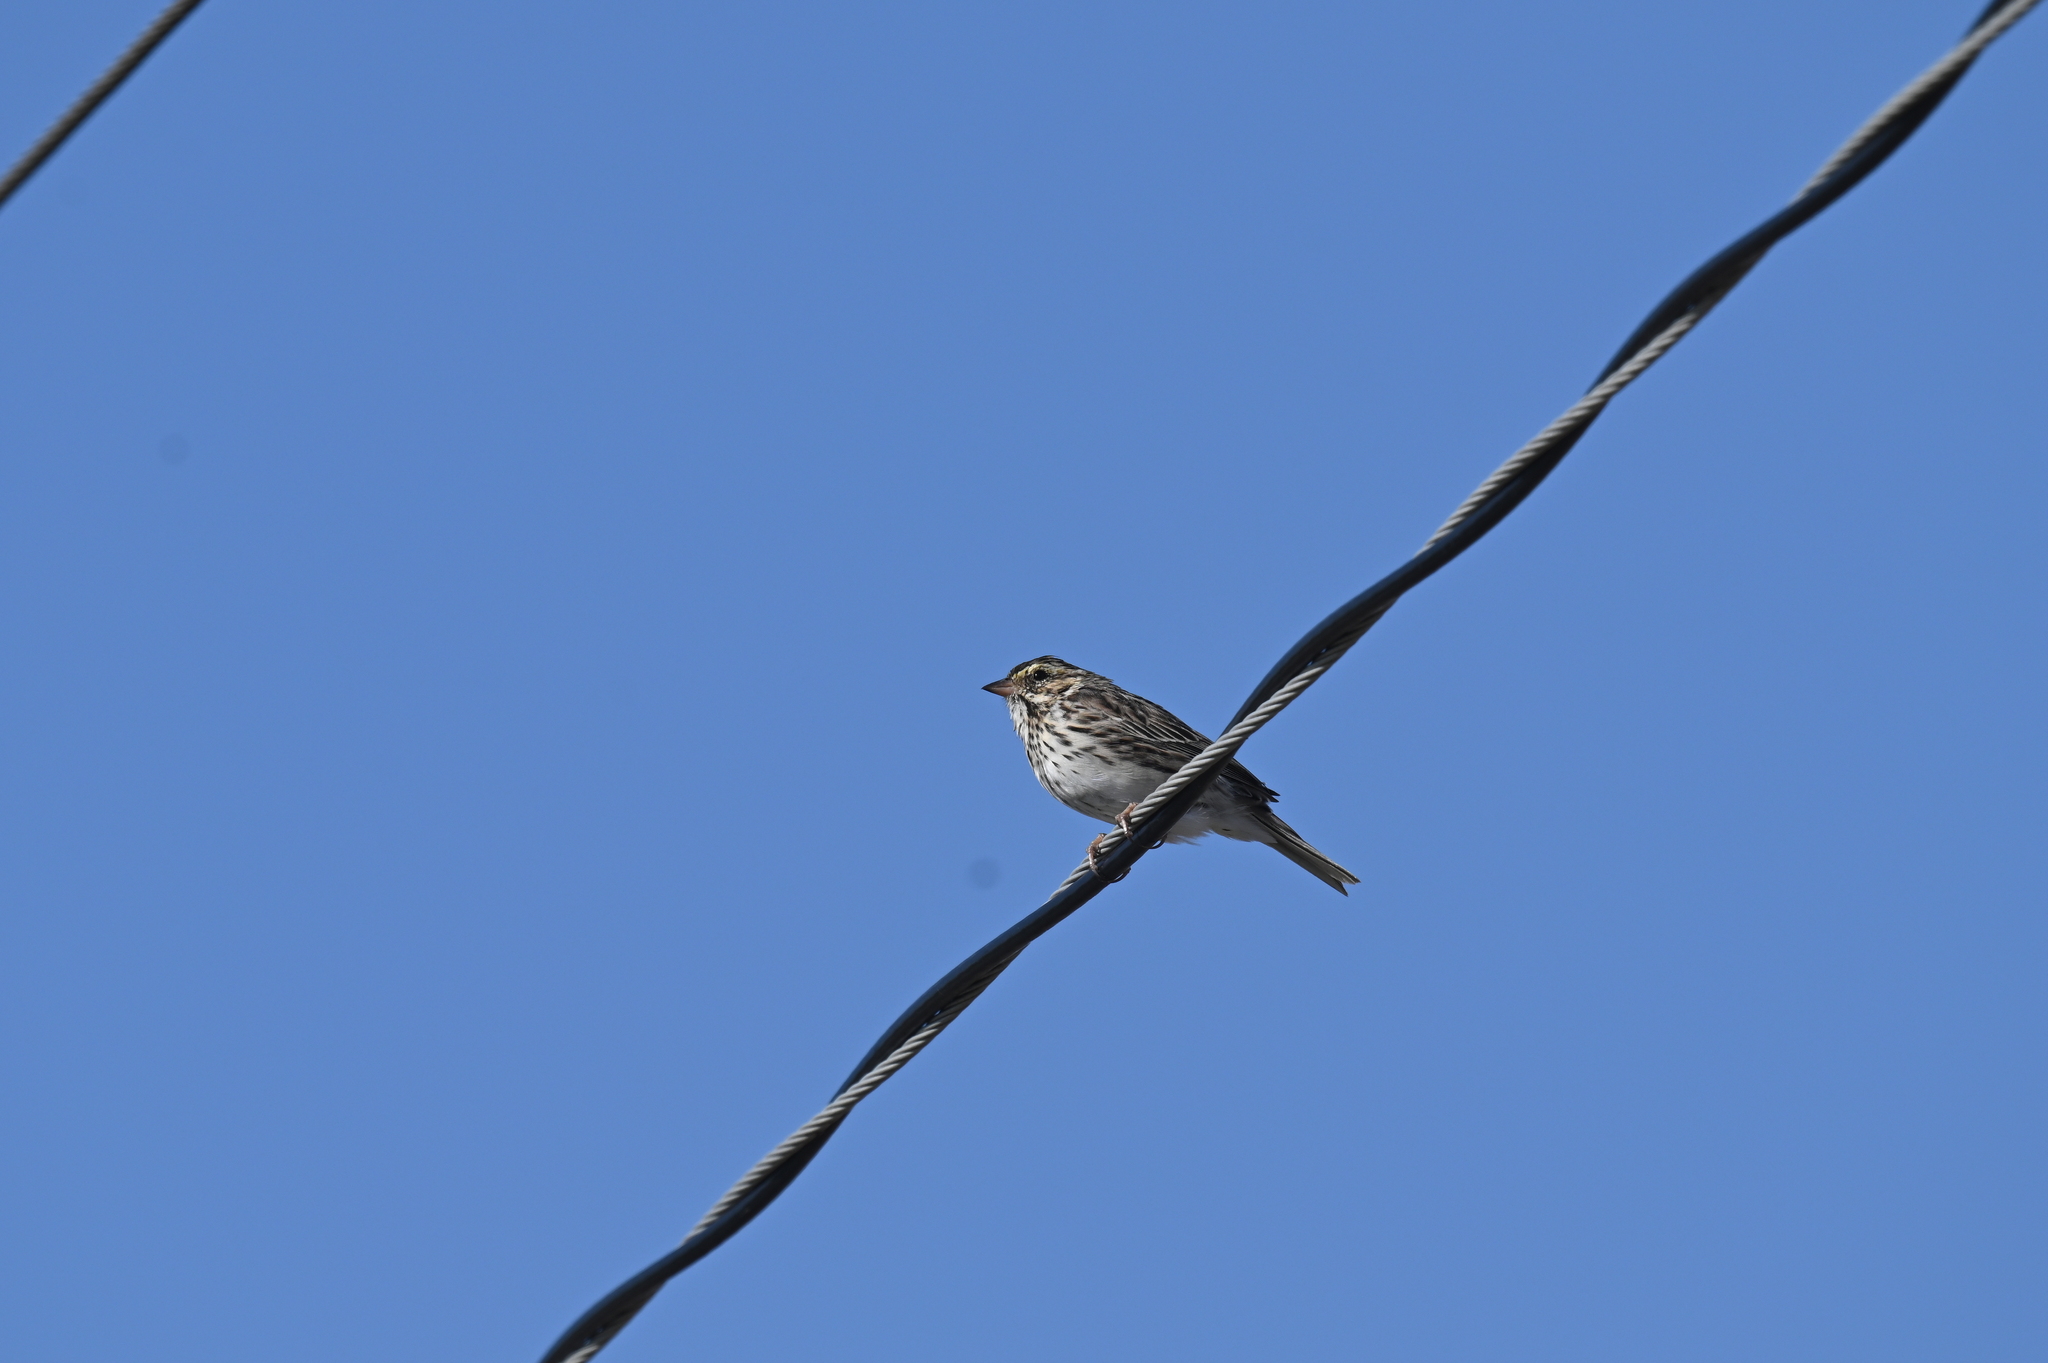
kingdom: Animalia
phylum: Chordata
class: Aves
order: Passeriformes
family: Passerellidae
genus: Passerculus
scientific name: Passerculus sandwichensis
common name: Savannah sparrow
